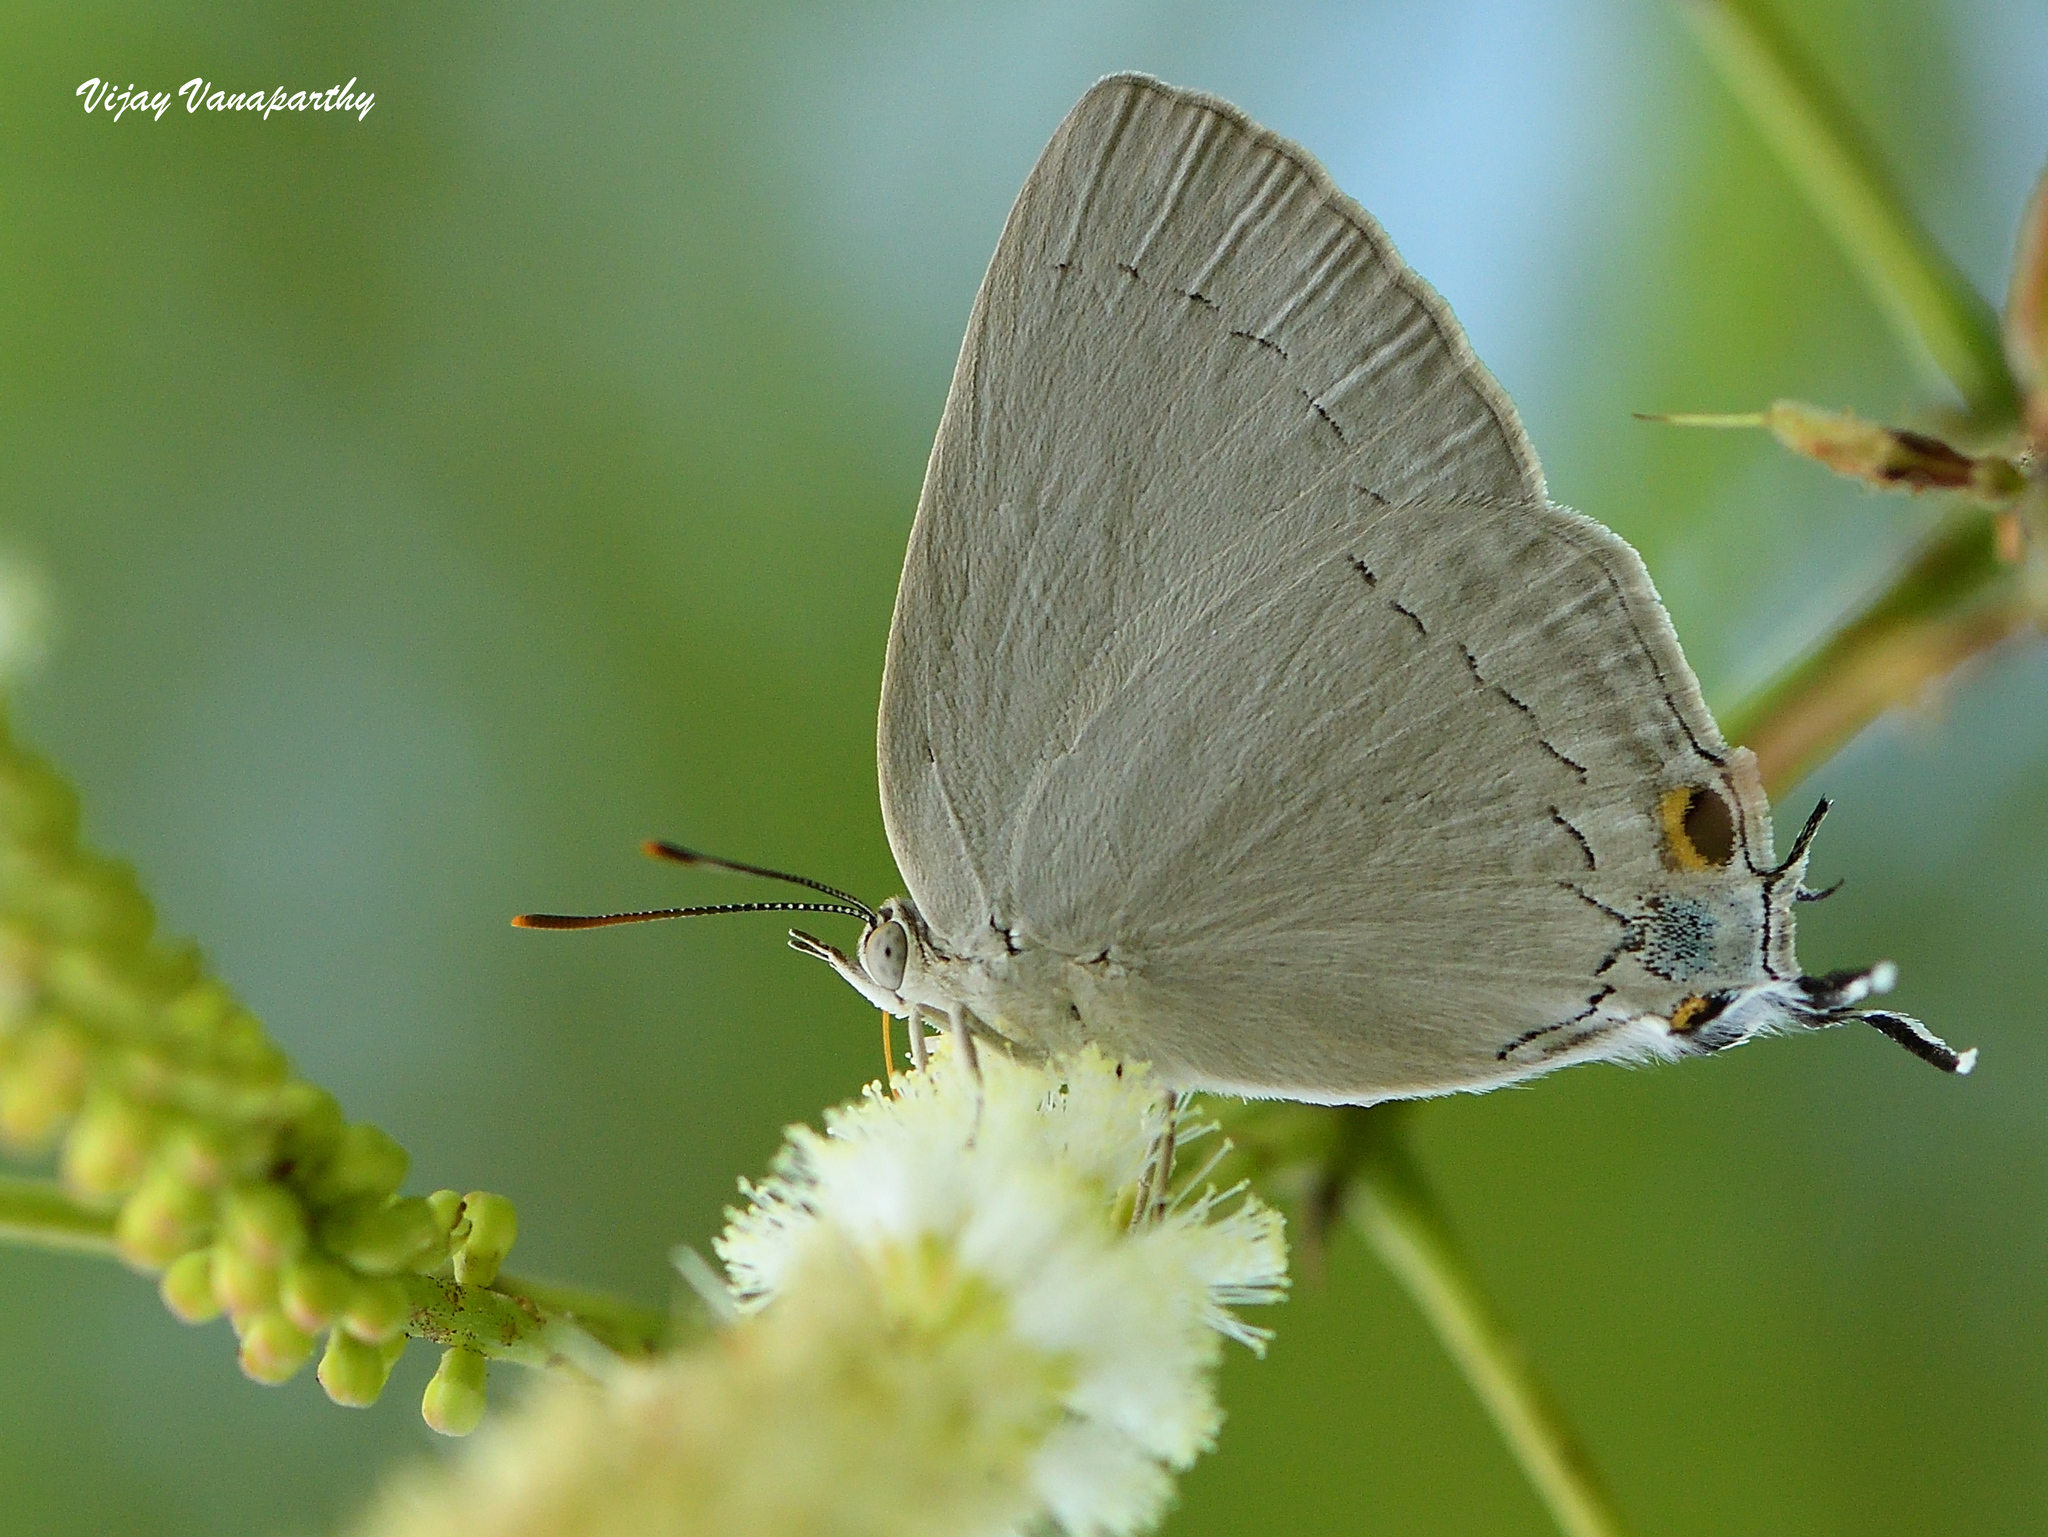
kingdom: Animalia
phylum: Arthropoda
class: Insecta
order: Lepidoptera
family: Lycaenidae
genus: Tajuria
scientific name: Tajuria jehana
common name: Plains blue royal
